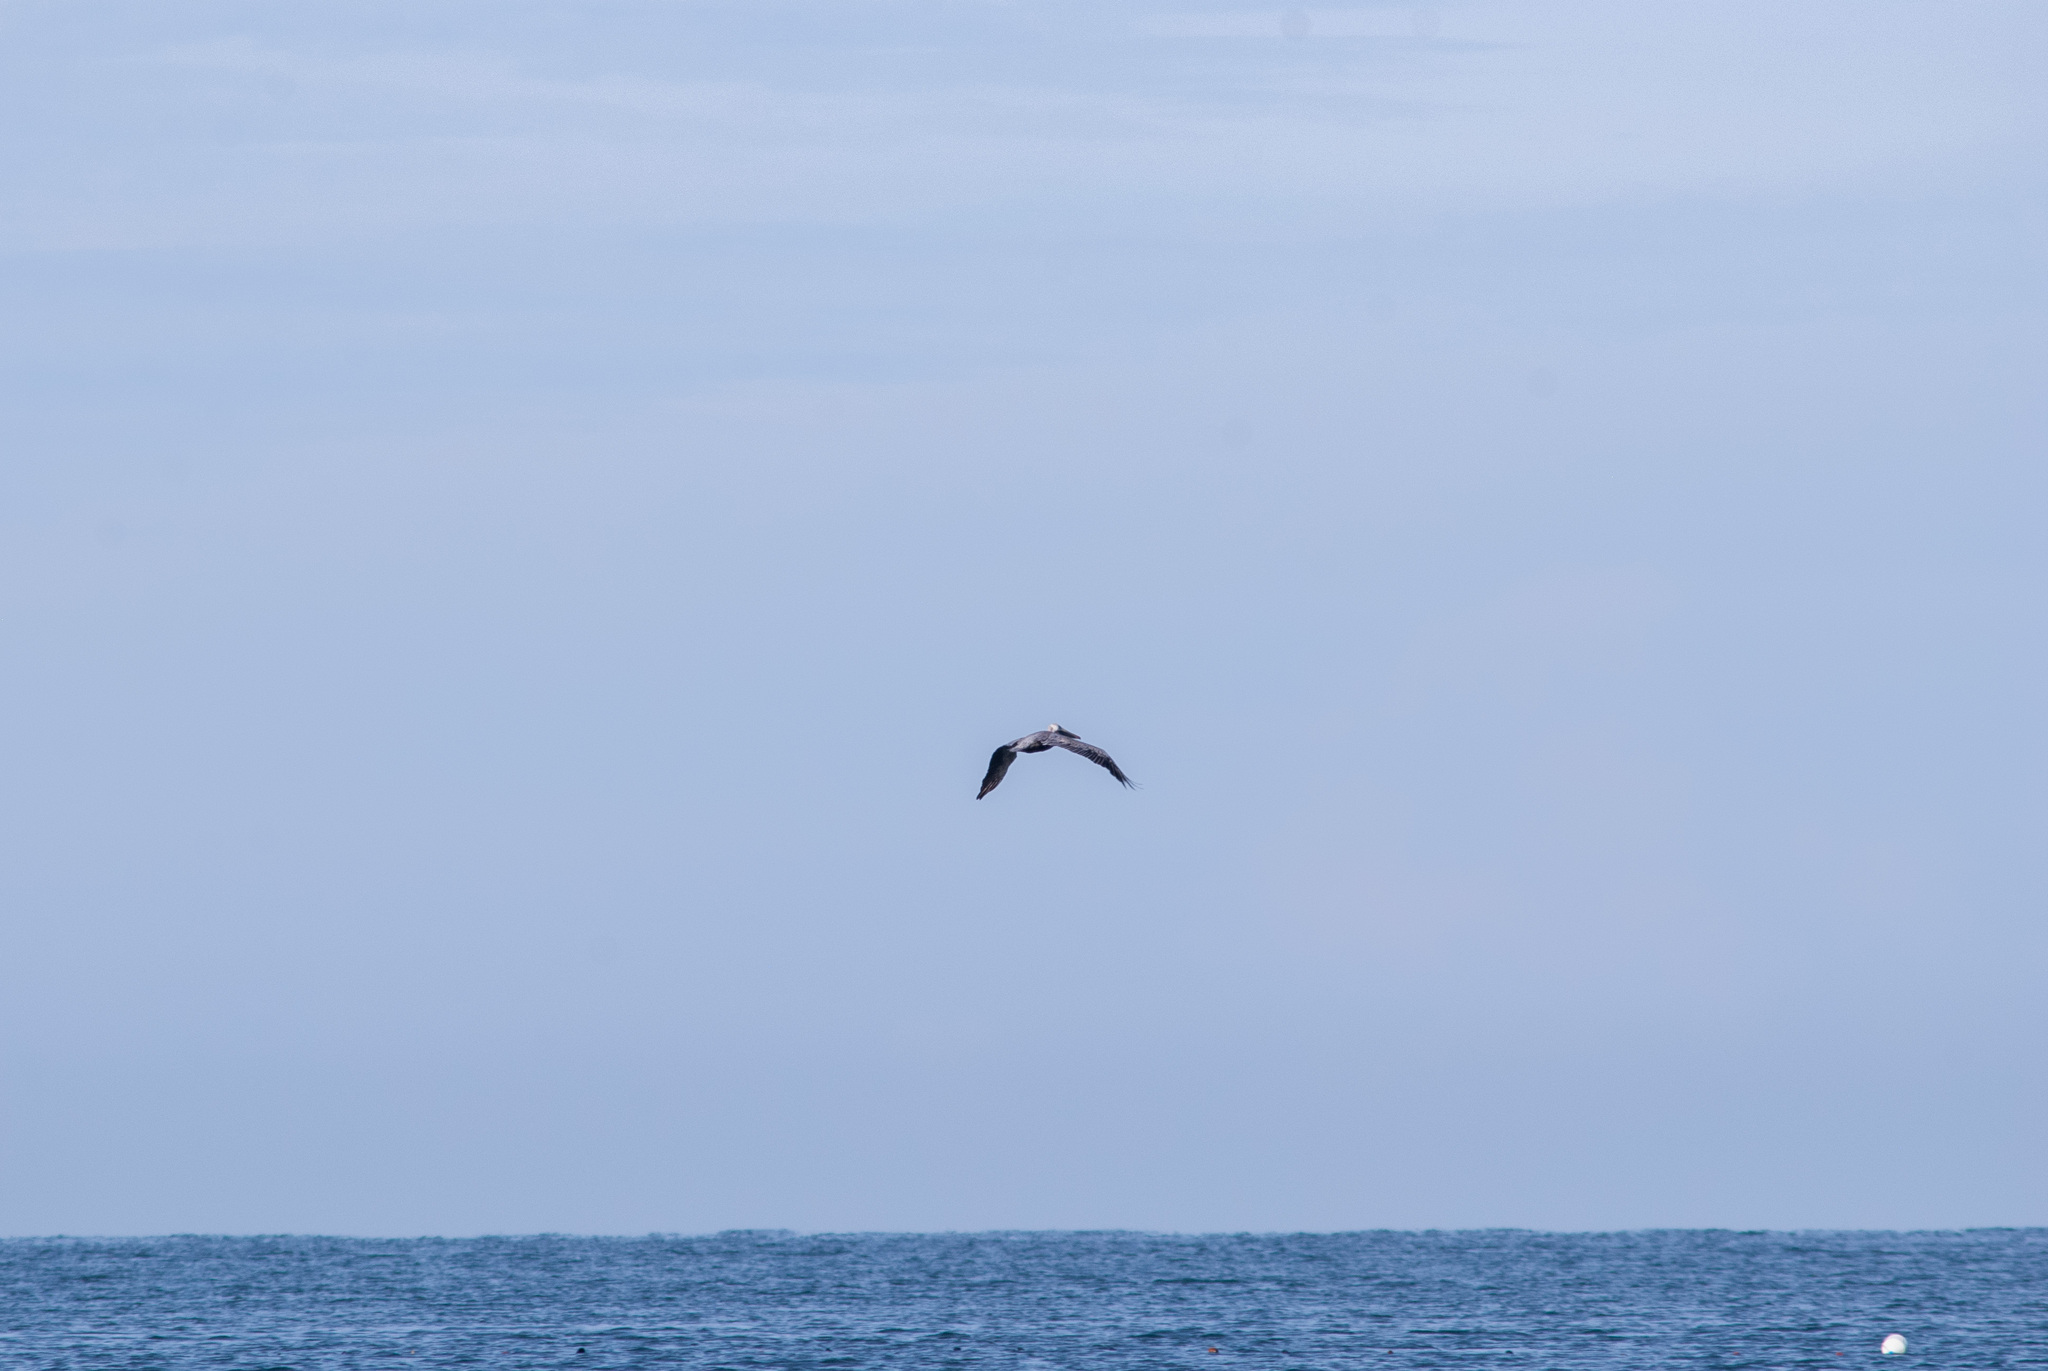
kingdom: Animalia
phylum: Chordata
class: Aves
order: Pelecaniformes
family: Pelecanidae
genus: Pelecanus
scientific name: Pelecanus occidentalis
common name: Brown pelican
